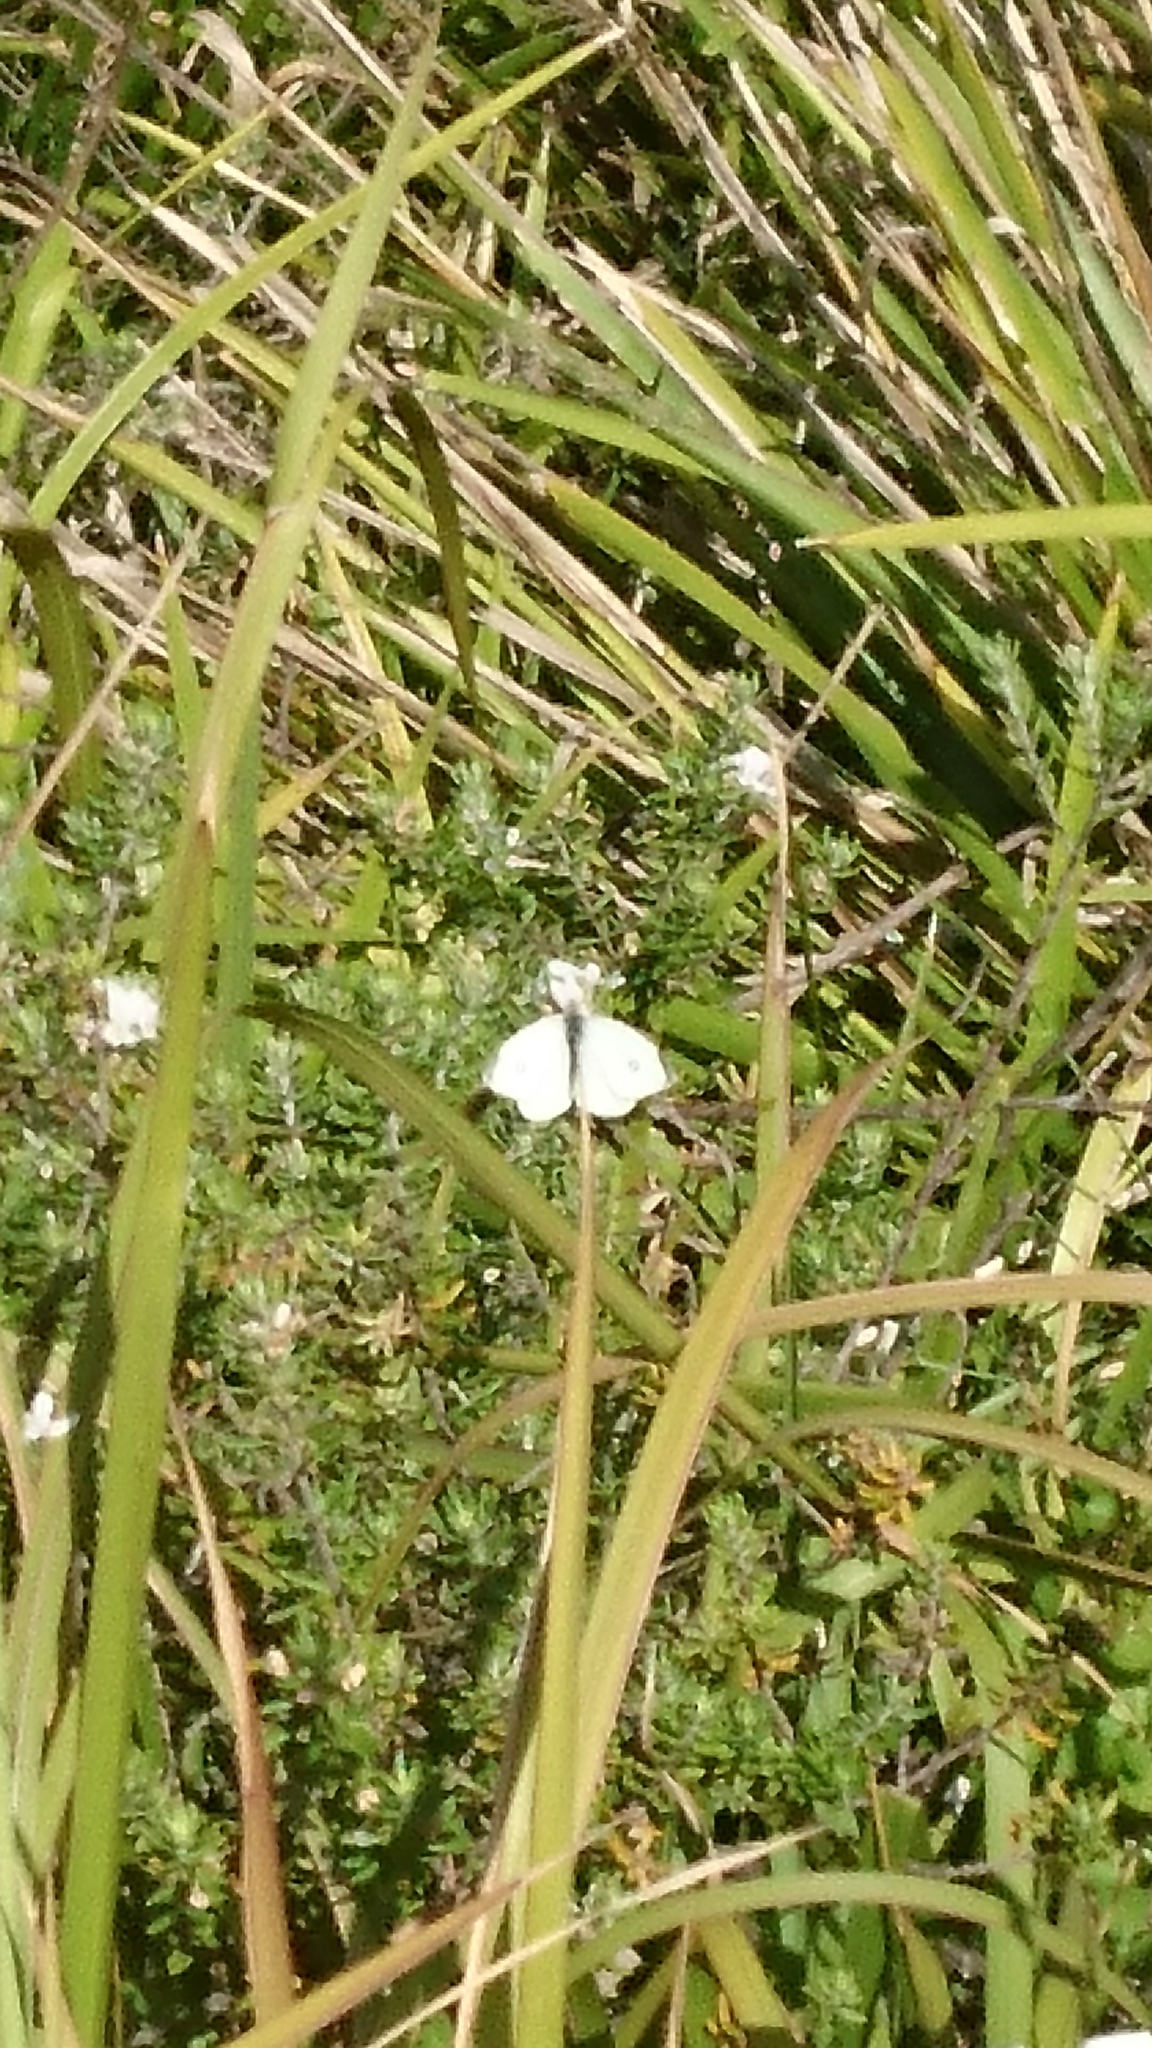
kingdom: Animalia
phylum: Arthropoda
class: Insecta
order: Lepidoptera
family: Pieridae
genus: Pieris
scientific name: Pieris rapae
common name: Small white
